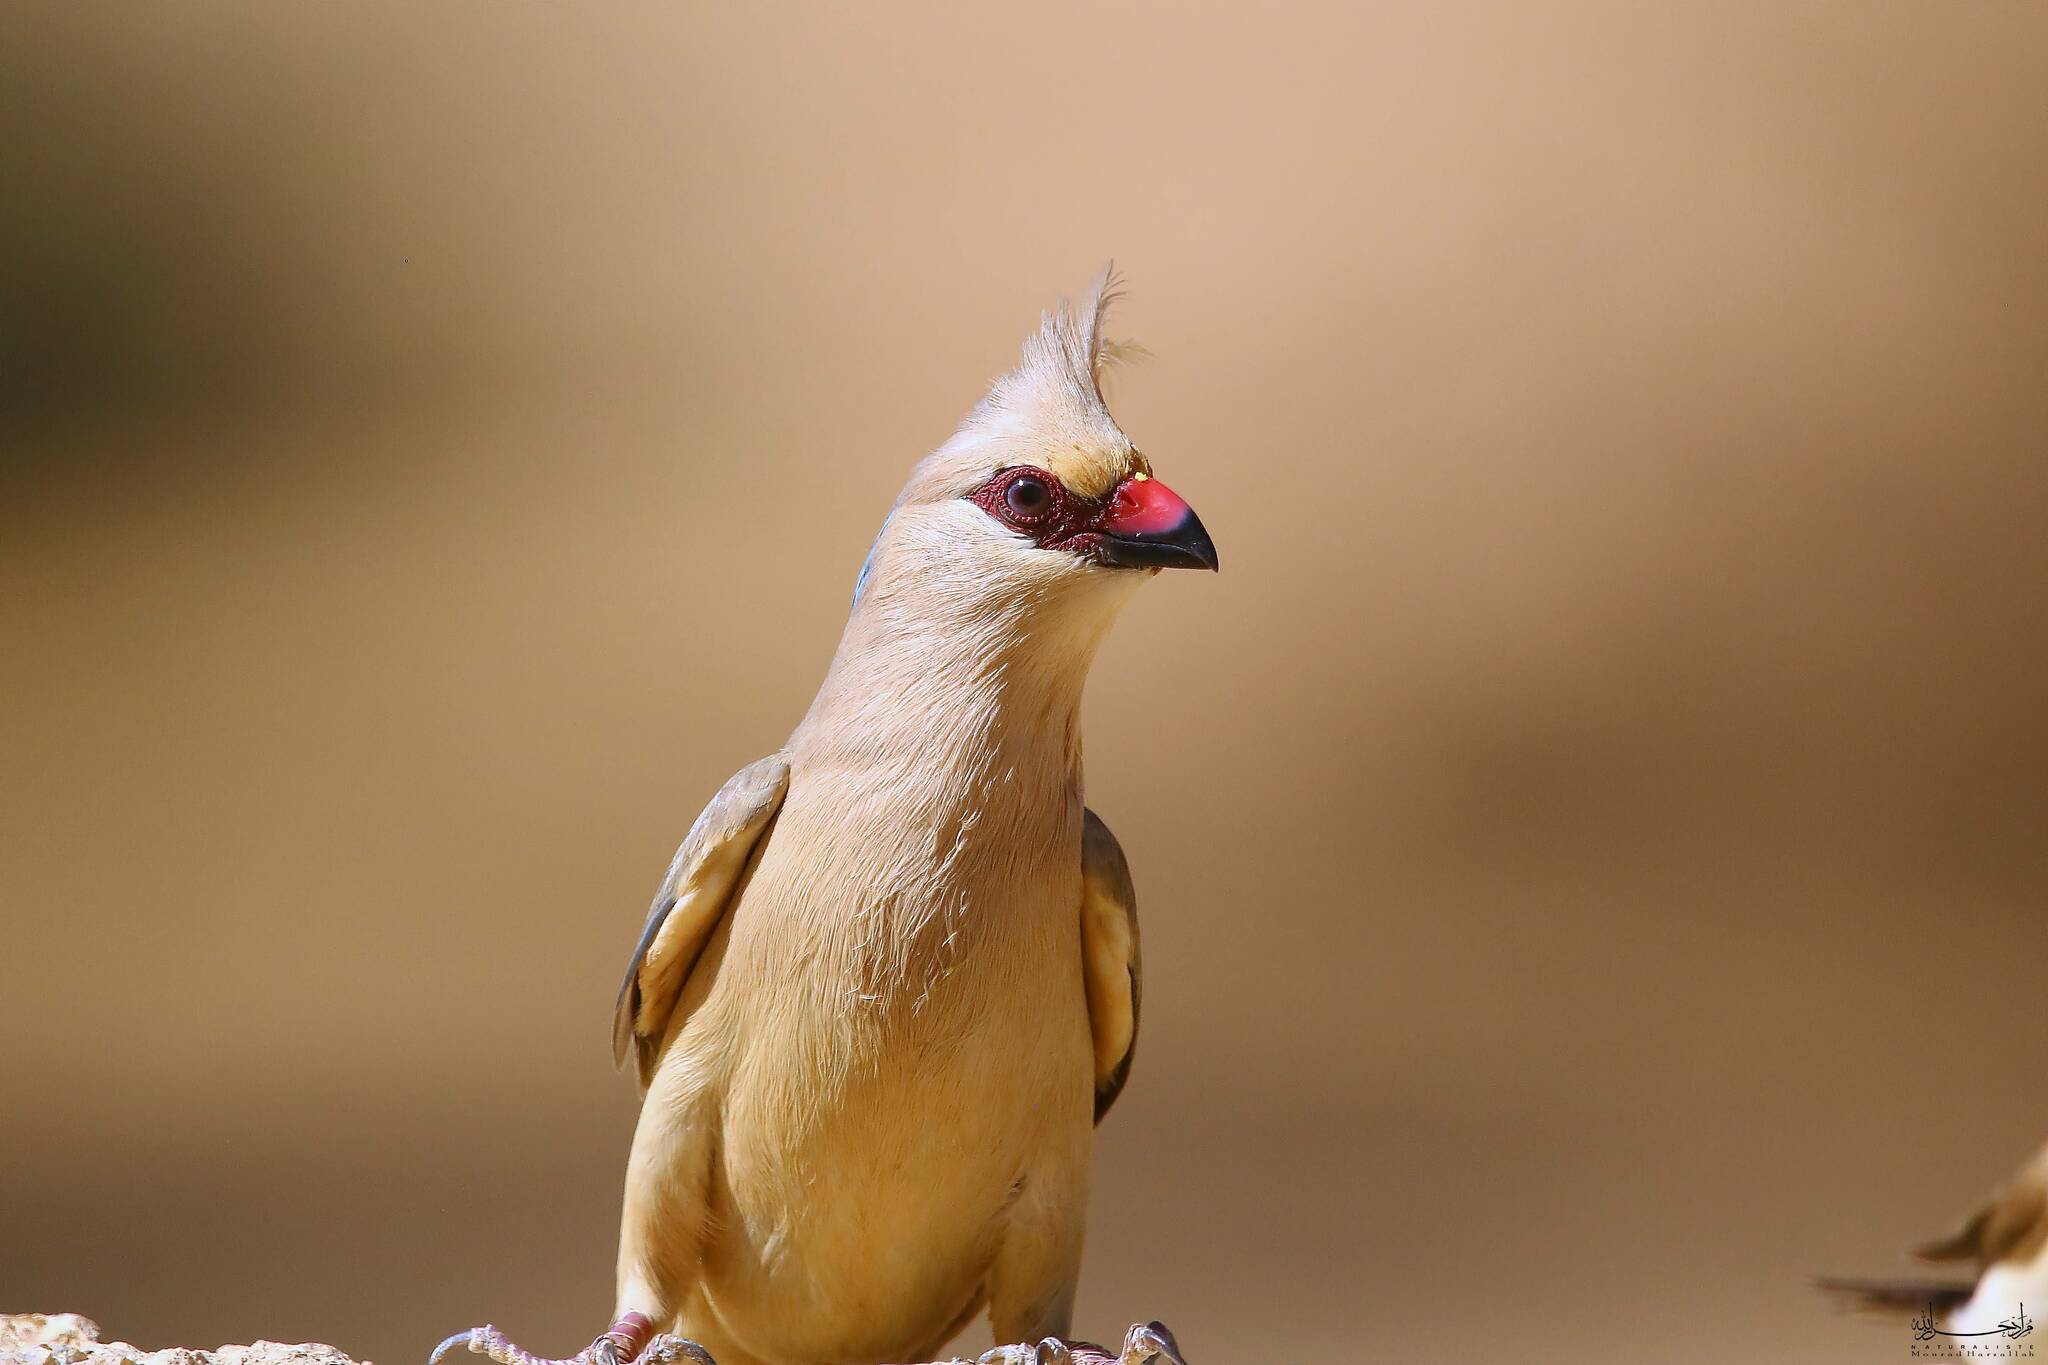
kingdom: Animalia
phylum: Chordata
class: Aves
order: Coliiformes
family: Coliidae
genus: Urocolius
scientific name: Urocolius macrourus
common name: Blue-naped mousebird
